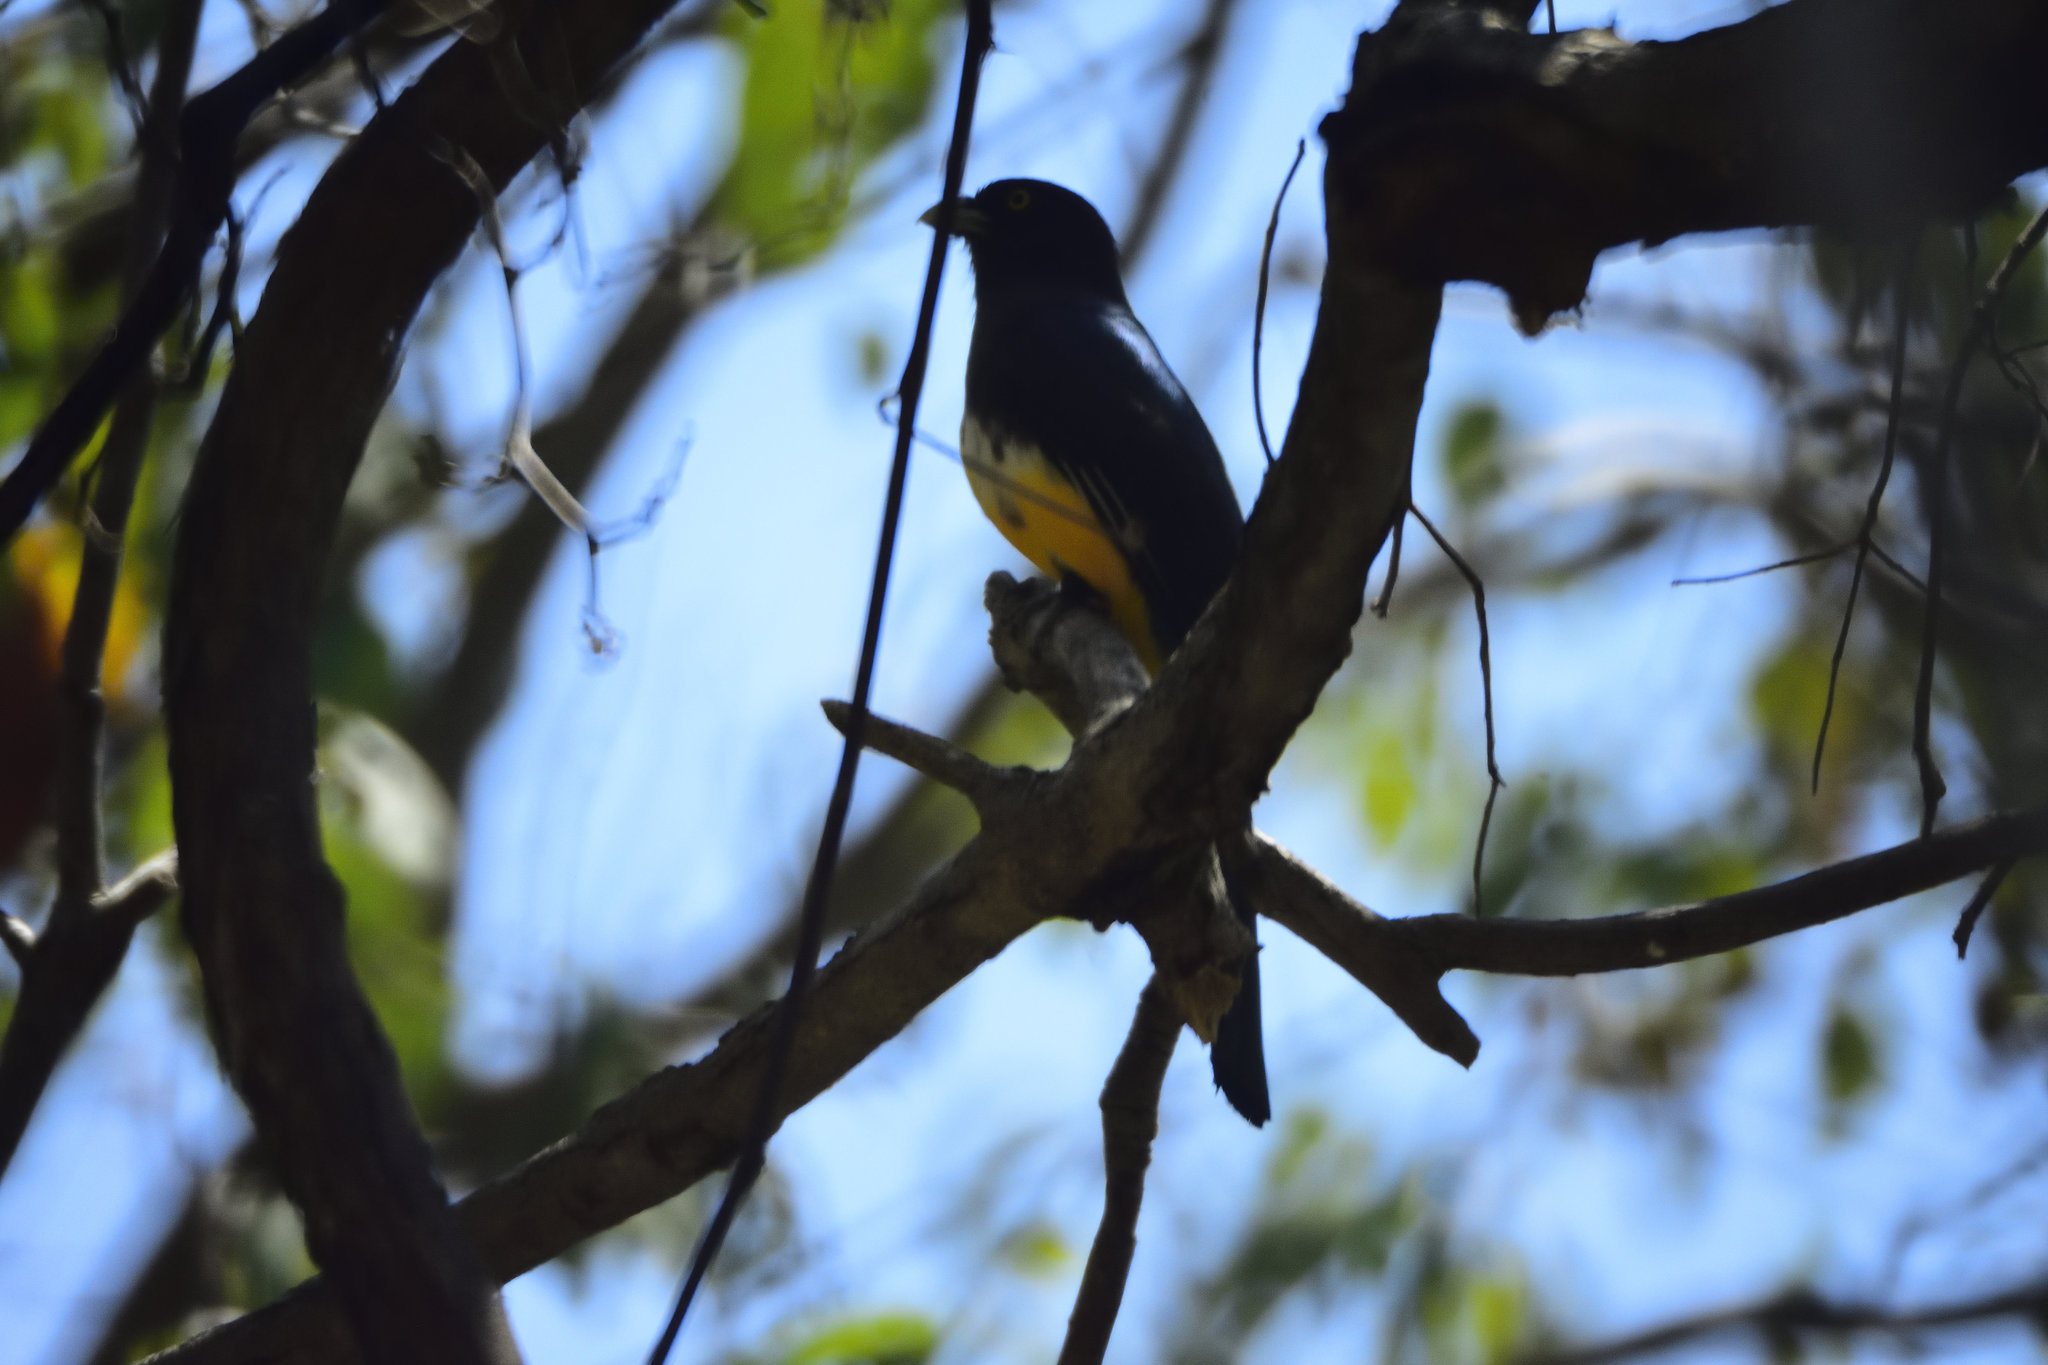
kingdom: Animalia
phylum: Chordata
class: Aves
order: Trogoniformes
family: Trogonidae
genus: Trogon
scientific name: Trogon citreolus
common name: Citreoline trogon
